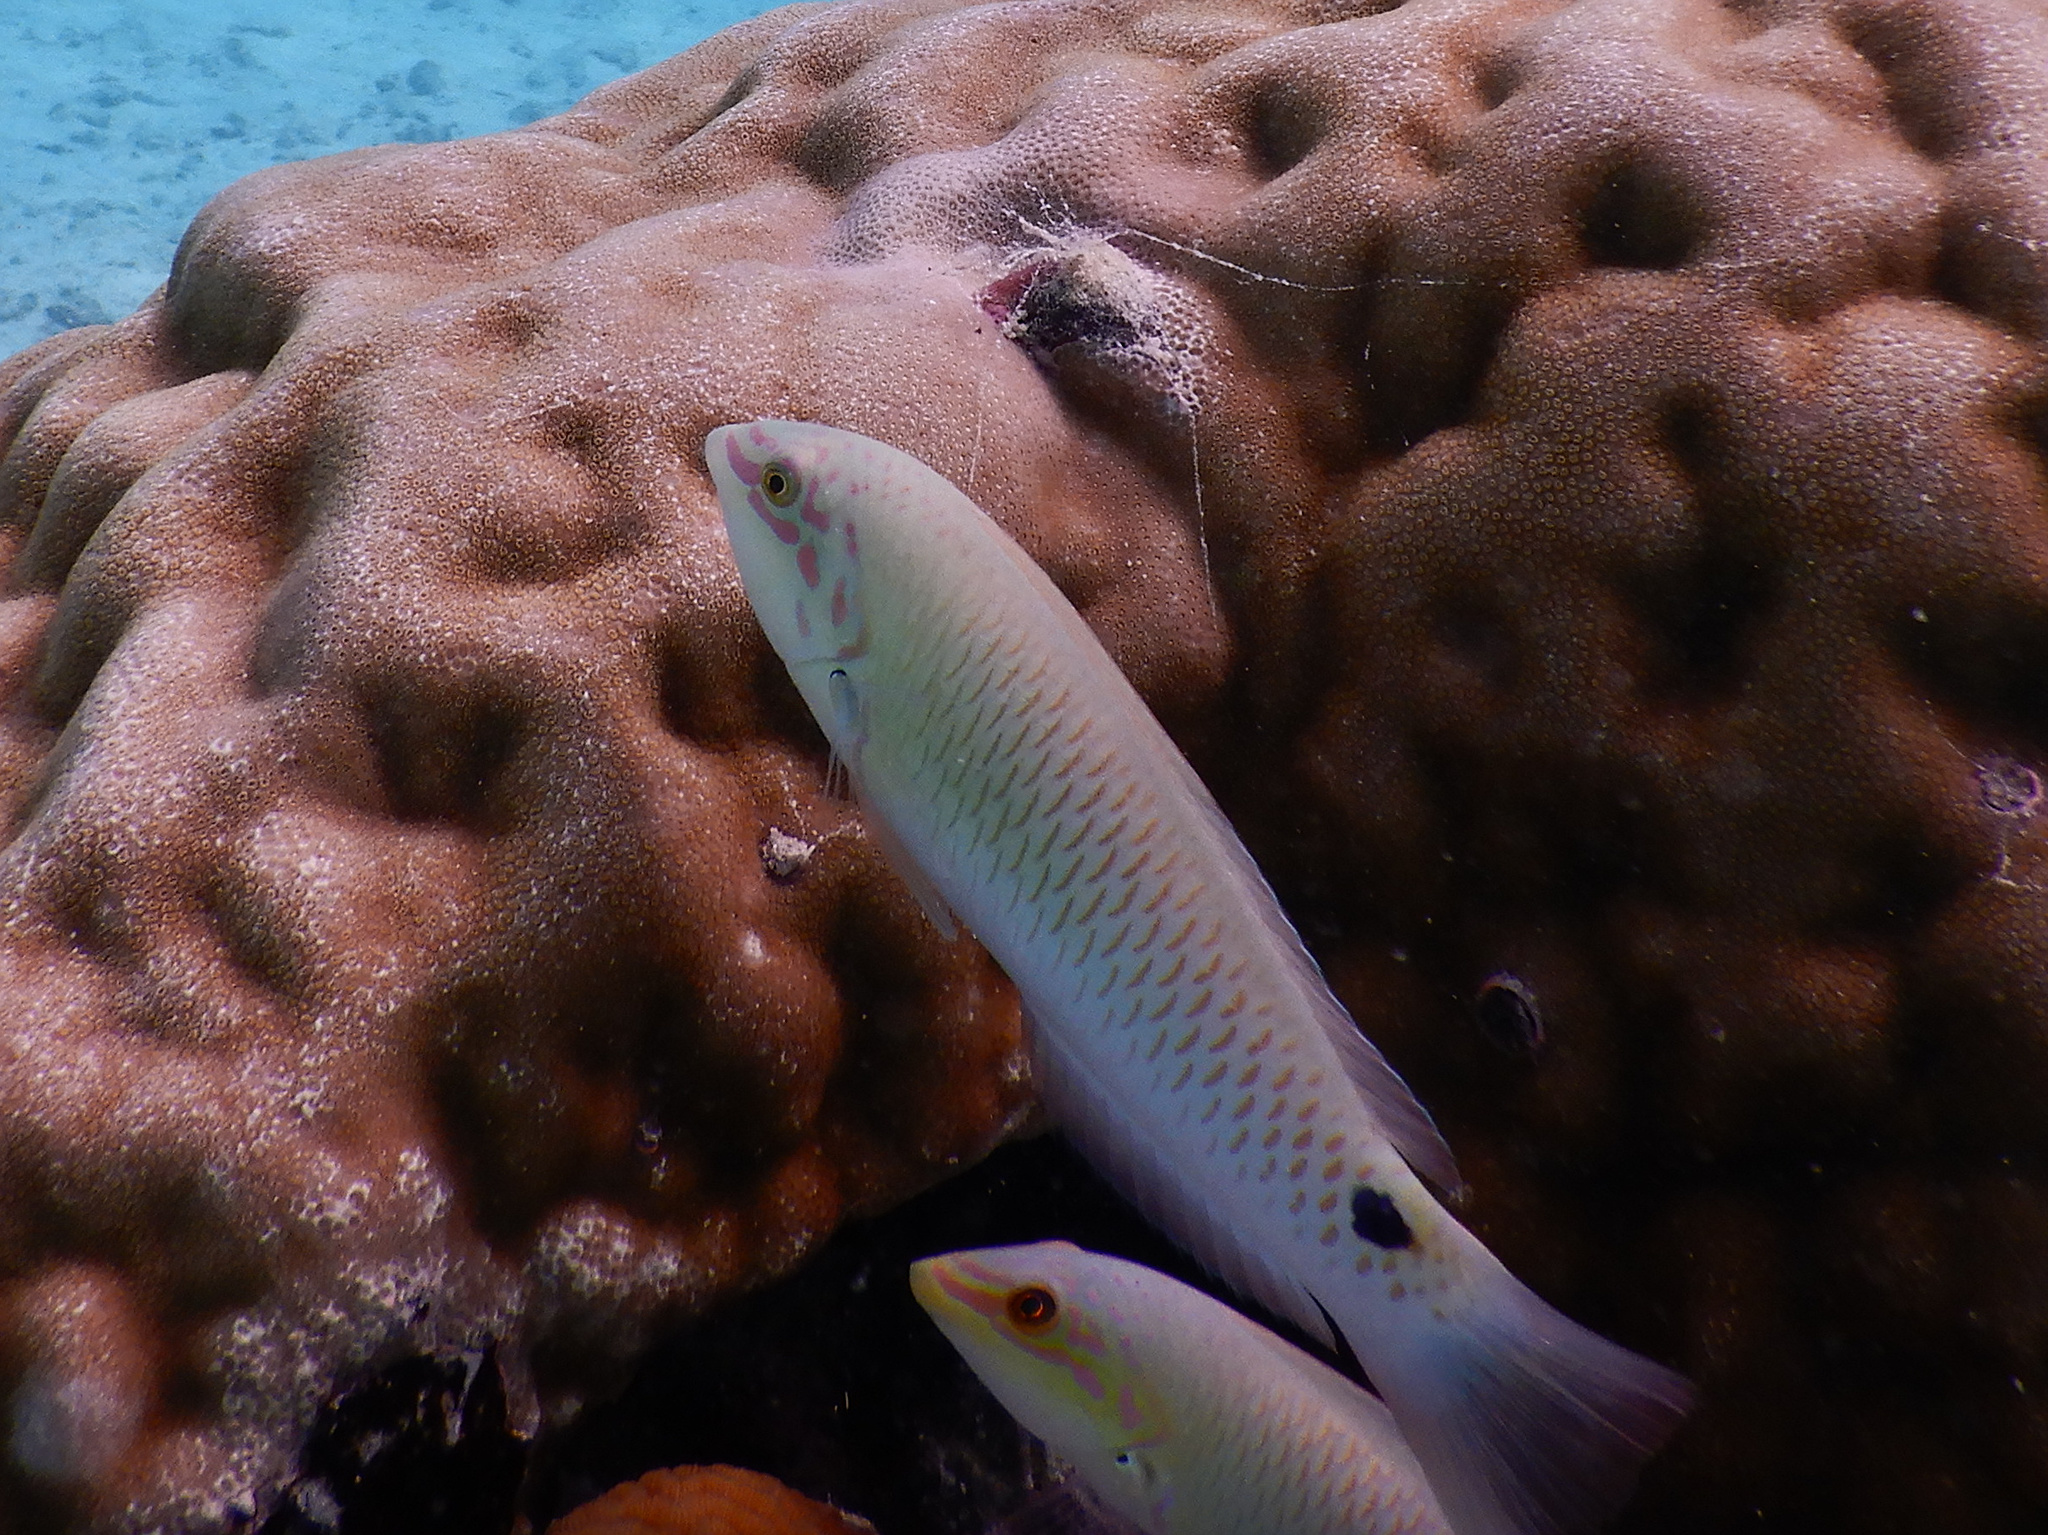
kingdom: Animalia
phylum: Chordata
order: Perciformes
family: Labridae
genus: Halichoeres
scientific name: Halichoeres trimaculatus
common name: Three-spot wrasse
